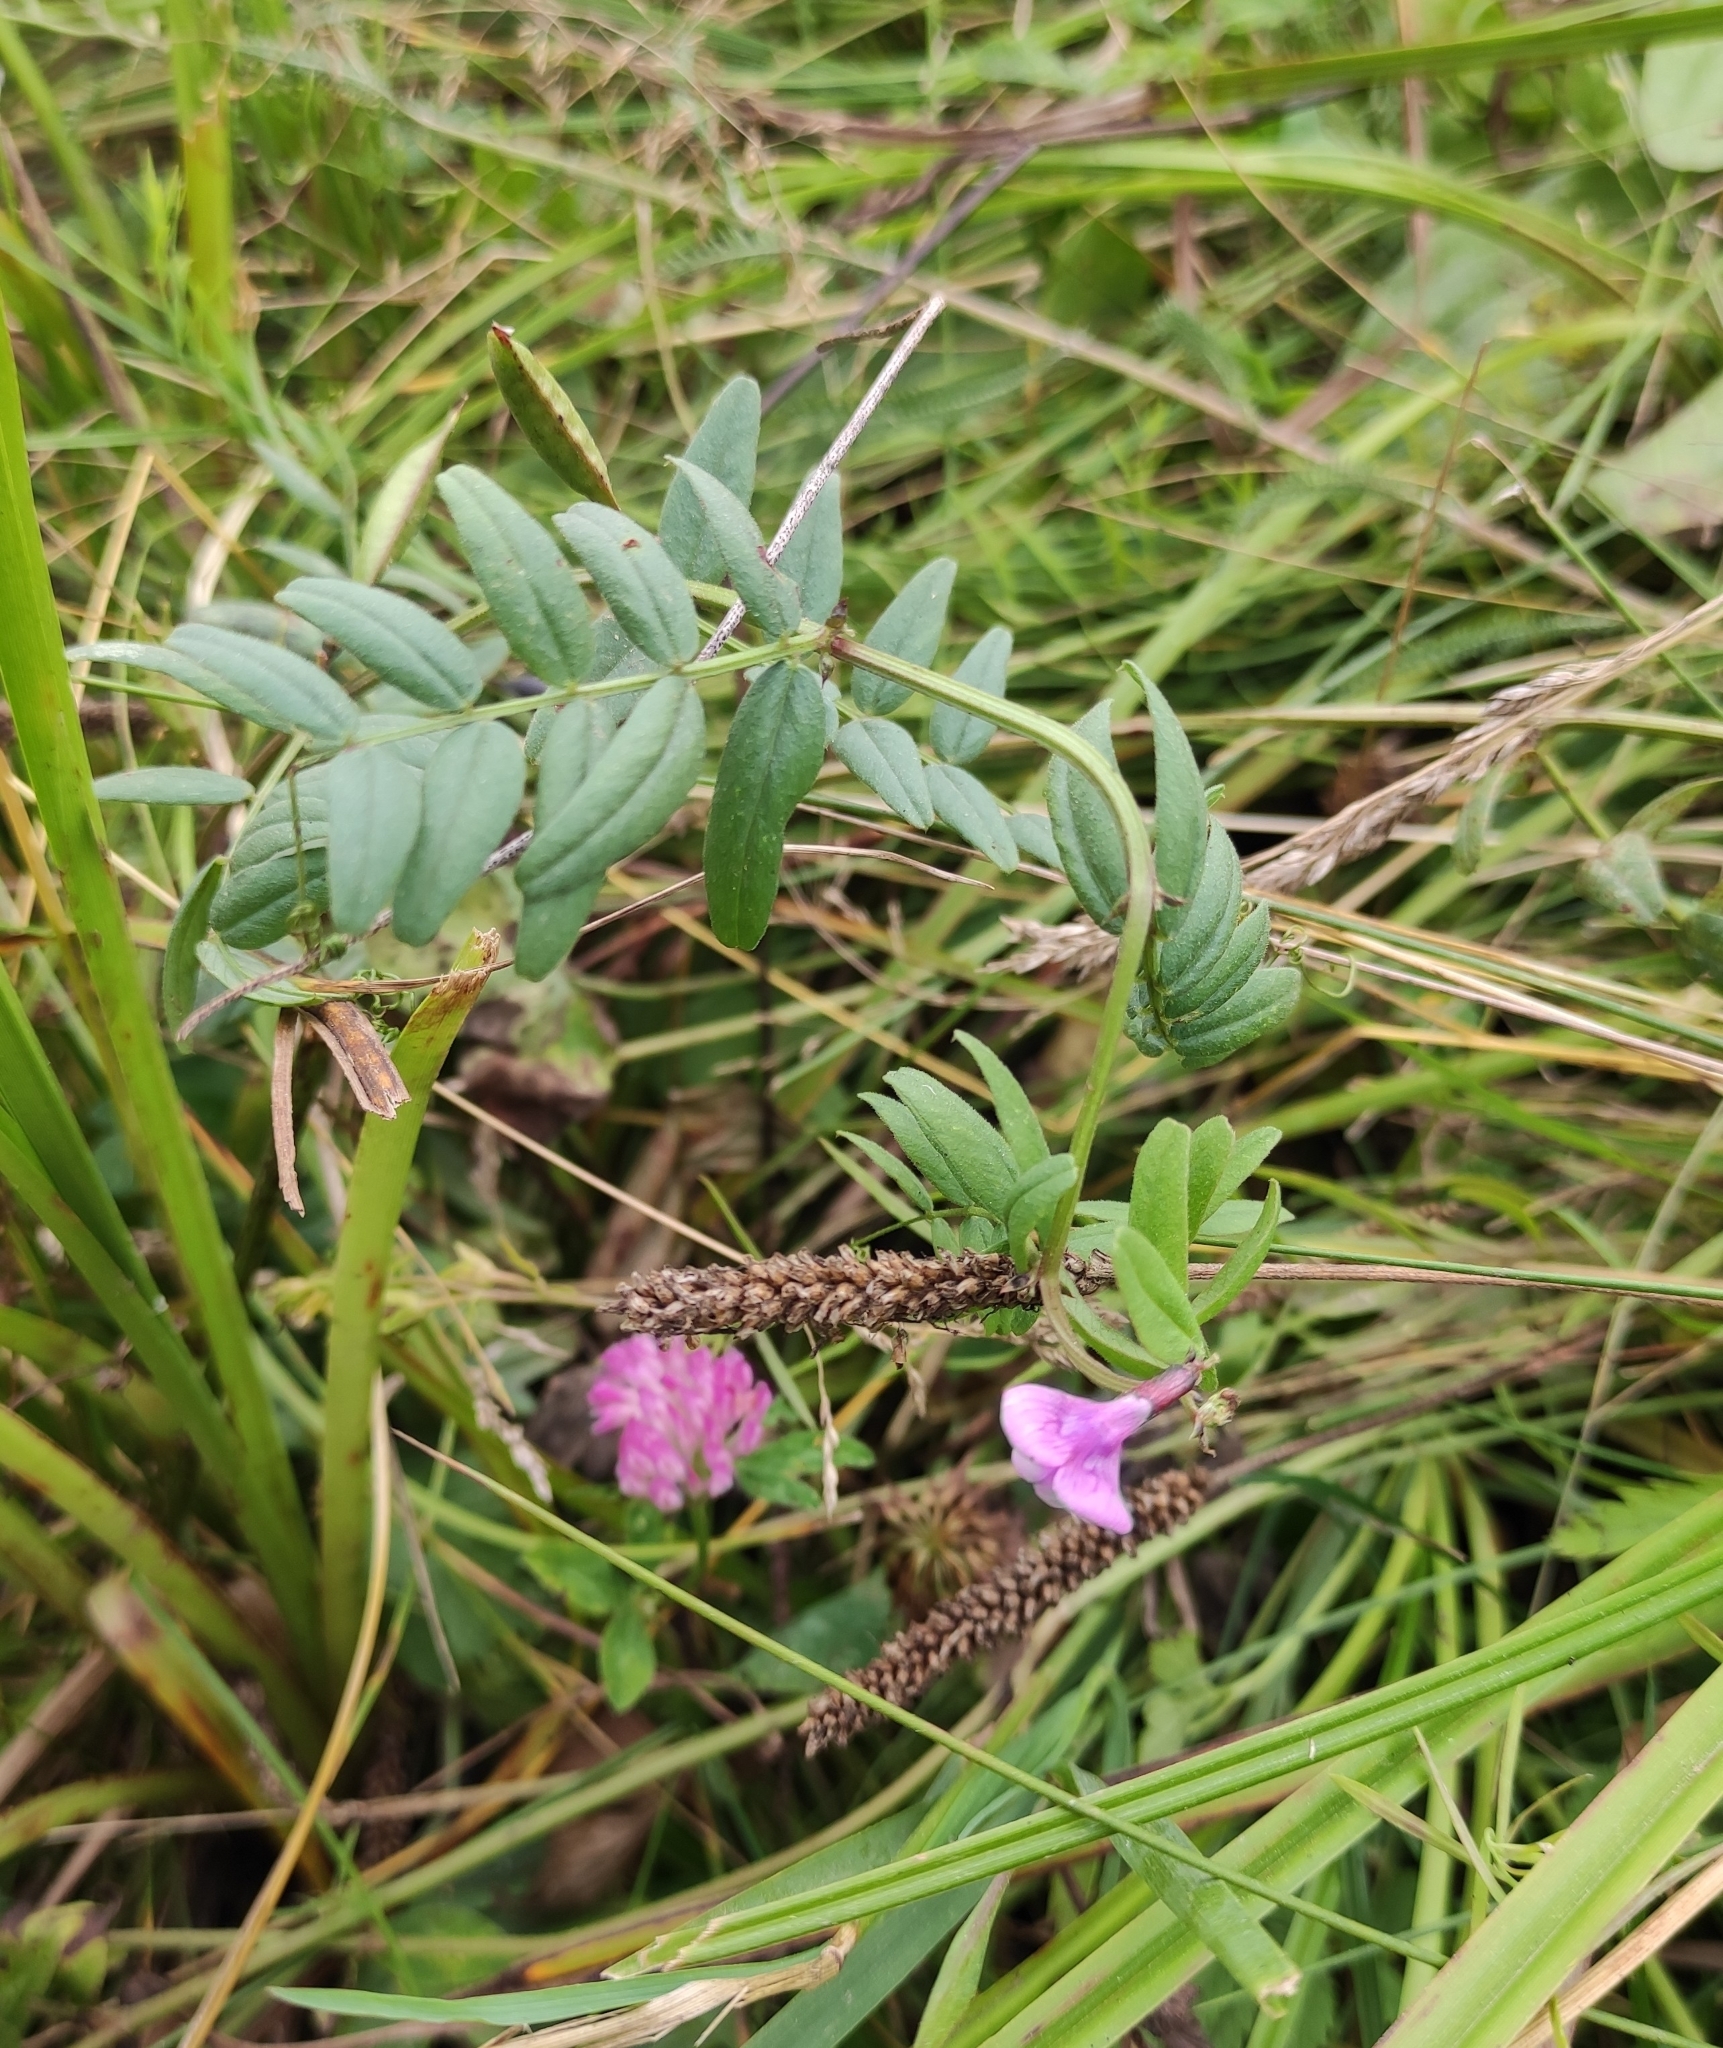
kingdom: Plantae
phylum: Tracheophyta
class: Magnoliopsida
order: Fabales
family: Fabaceae
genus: Vicia
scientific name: Vicia sepium
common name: Bush vetch
